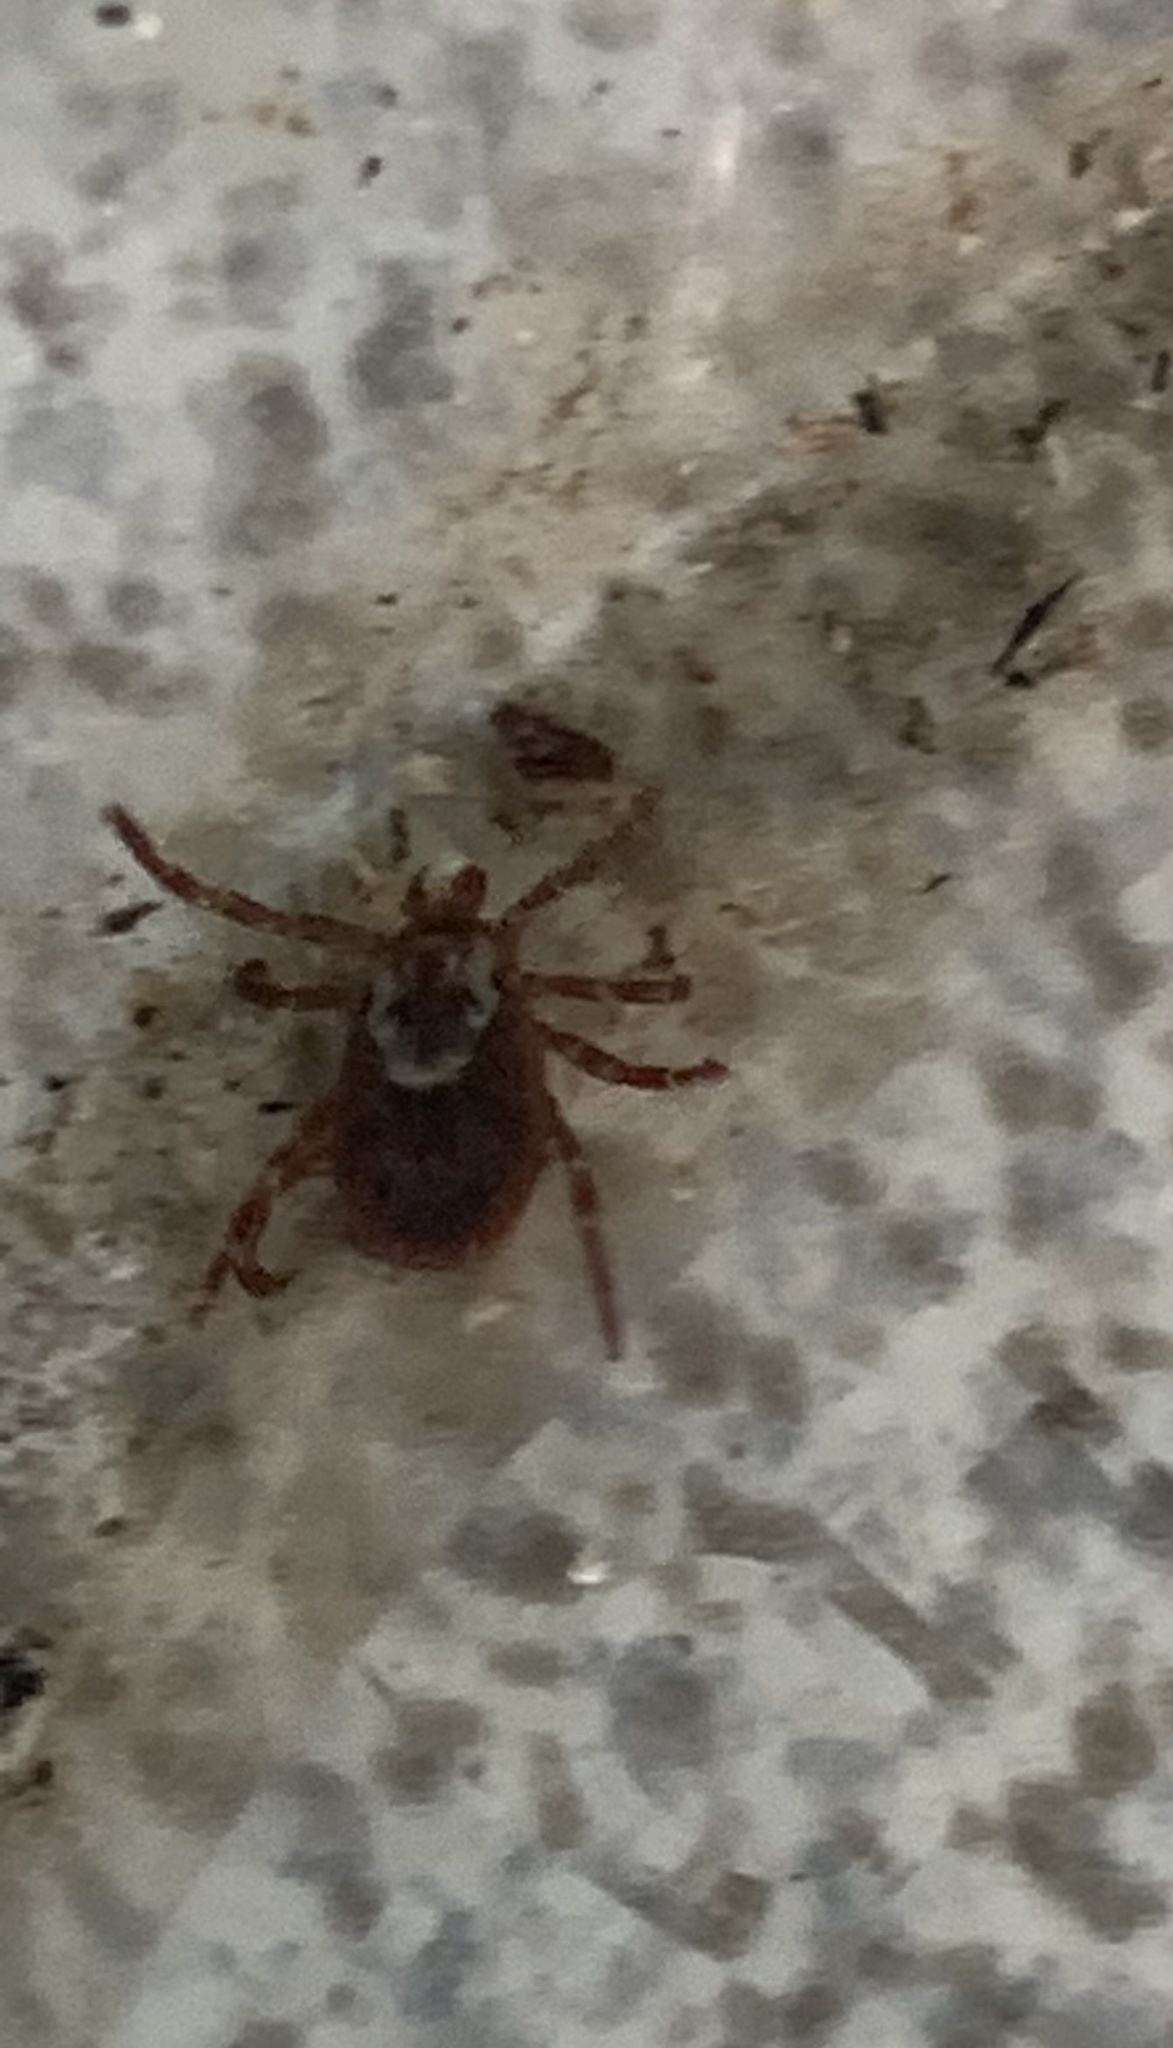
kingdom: Animalia
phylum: Arthropoda
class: Arachnida
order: Ixodida
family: Ixodidae
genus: Dermacentor
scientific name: Dermacentor variabilis
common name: American dog tick
